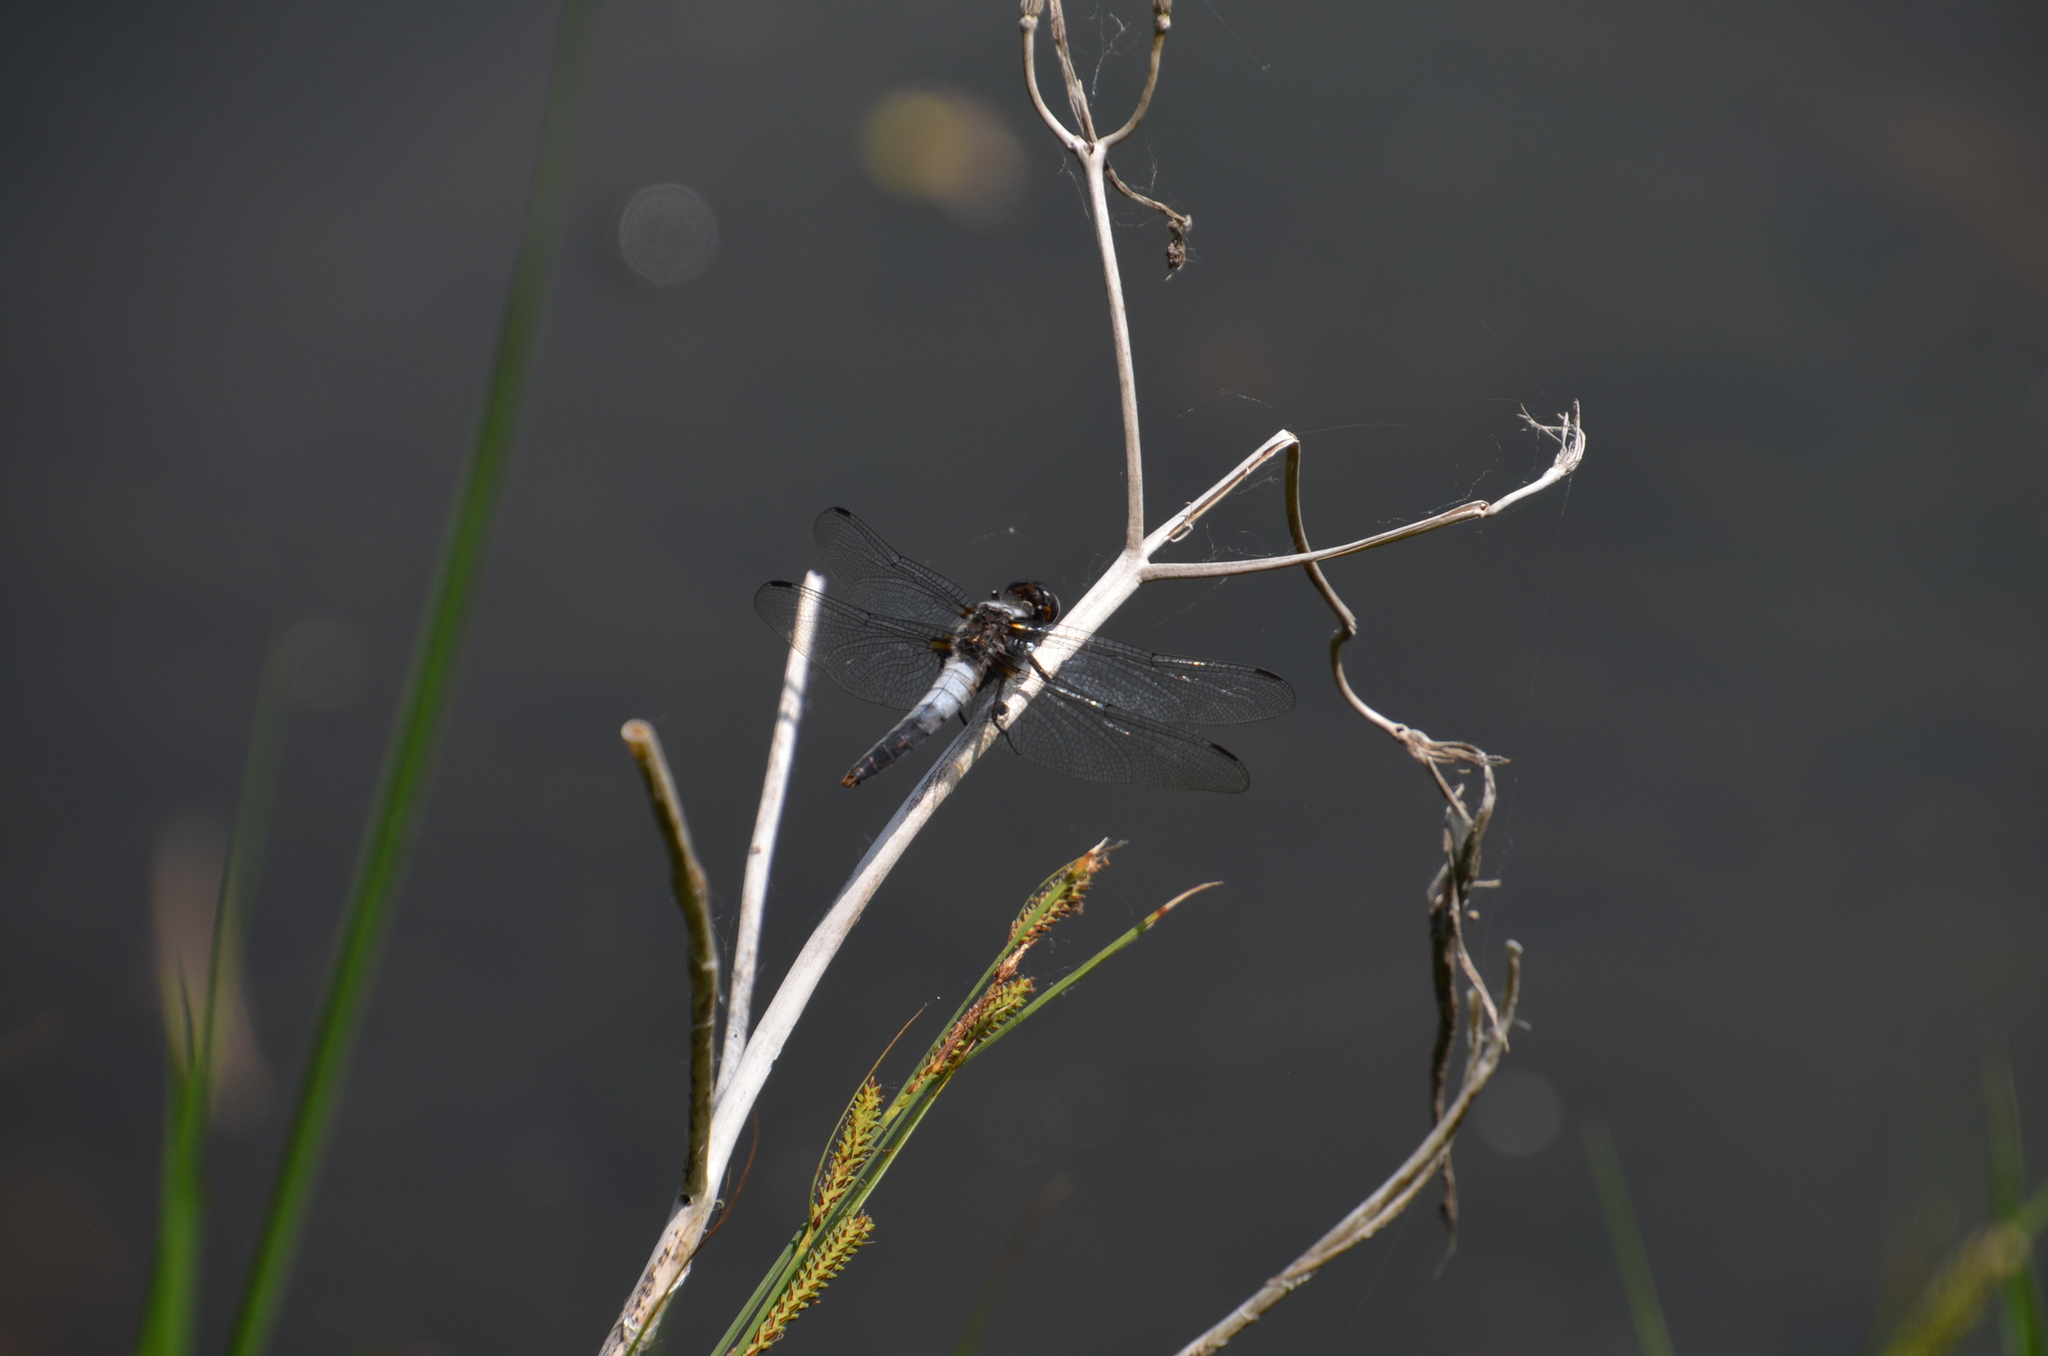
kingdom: Animalia
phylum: Arthropoda
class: Insecta
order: Odonata
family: Libellulidae
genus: Ladona
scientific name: Ladona julia
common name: Chalk-fronted corporal
